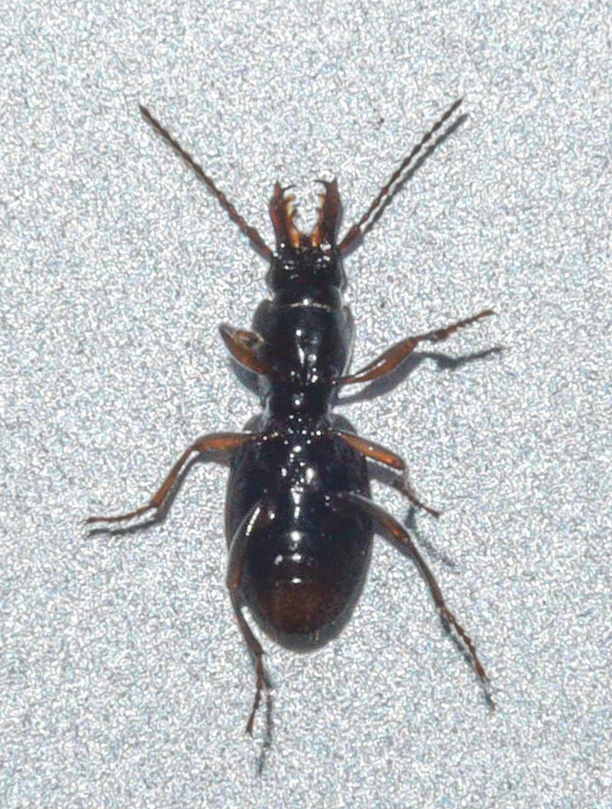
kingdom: Animalia
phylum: Arthropoda
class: Insecta
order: Coleoptera
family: Carabidae
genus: Promecognathus
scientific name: Promecognathus
